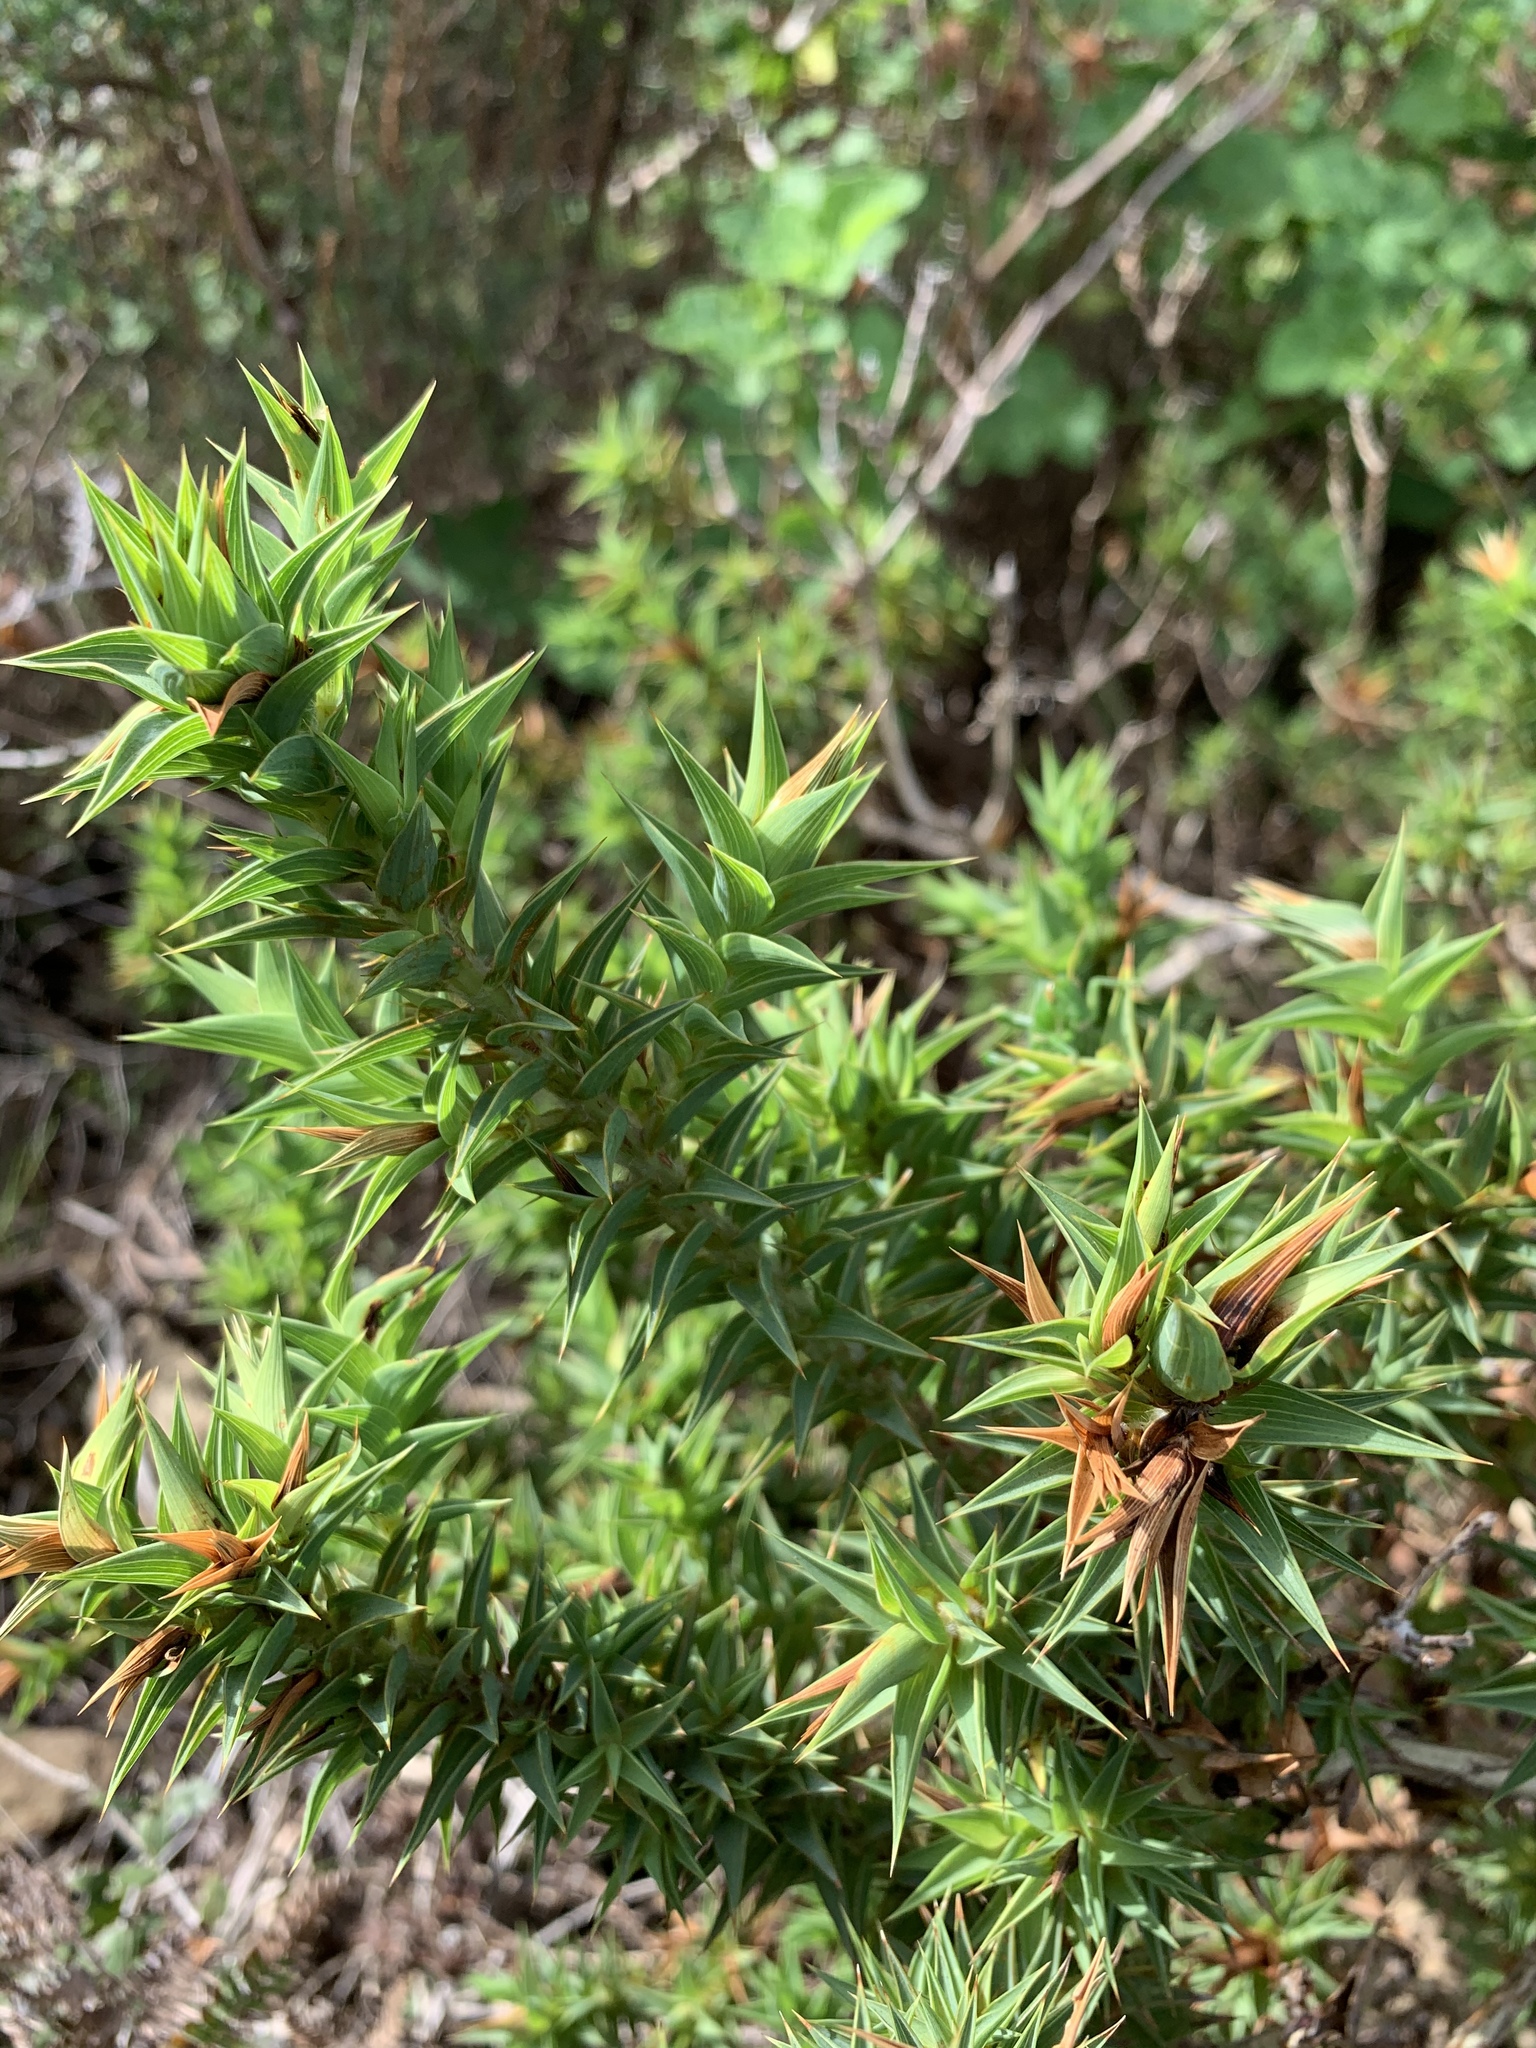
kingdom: Plantae
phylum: Tracheophyta
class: Magnoliopsida
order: Fabales
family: Fabaceae
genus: Aspalathus
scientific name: Aspalathus cordata
